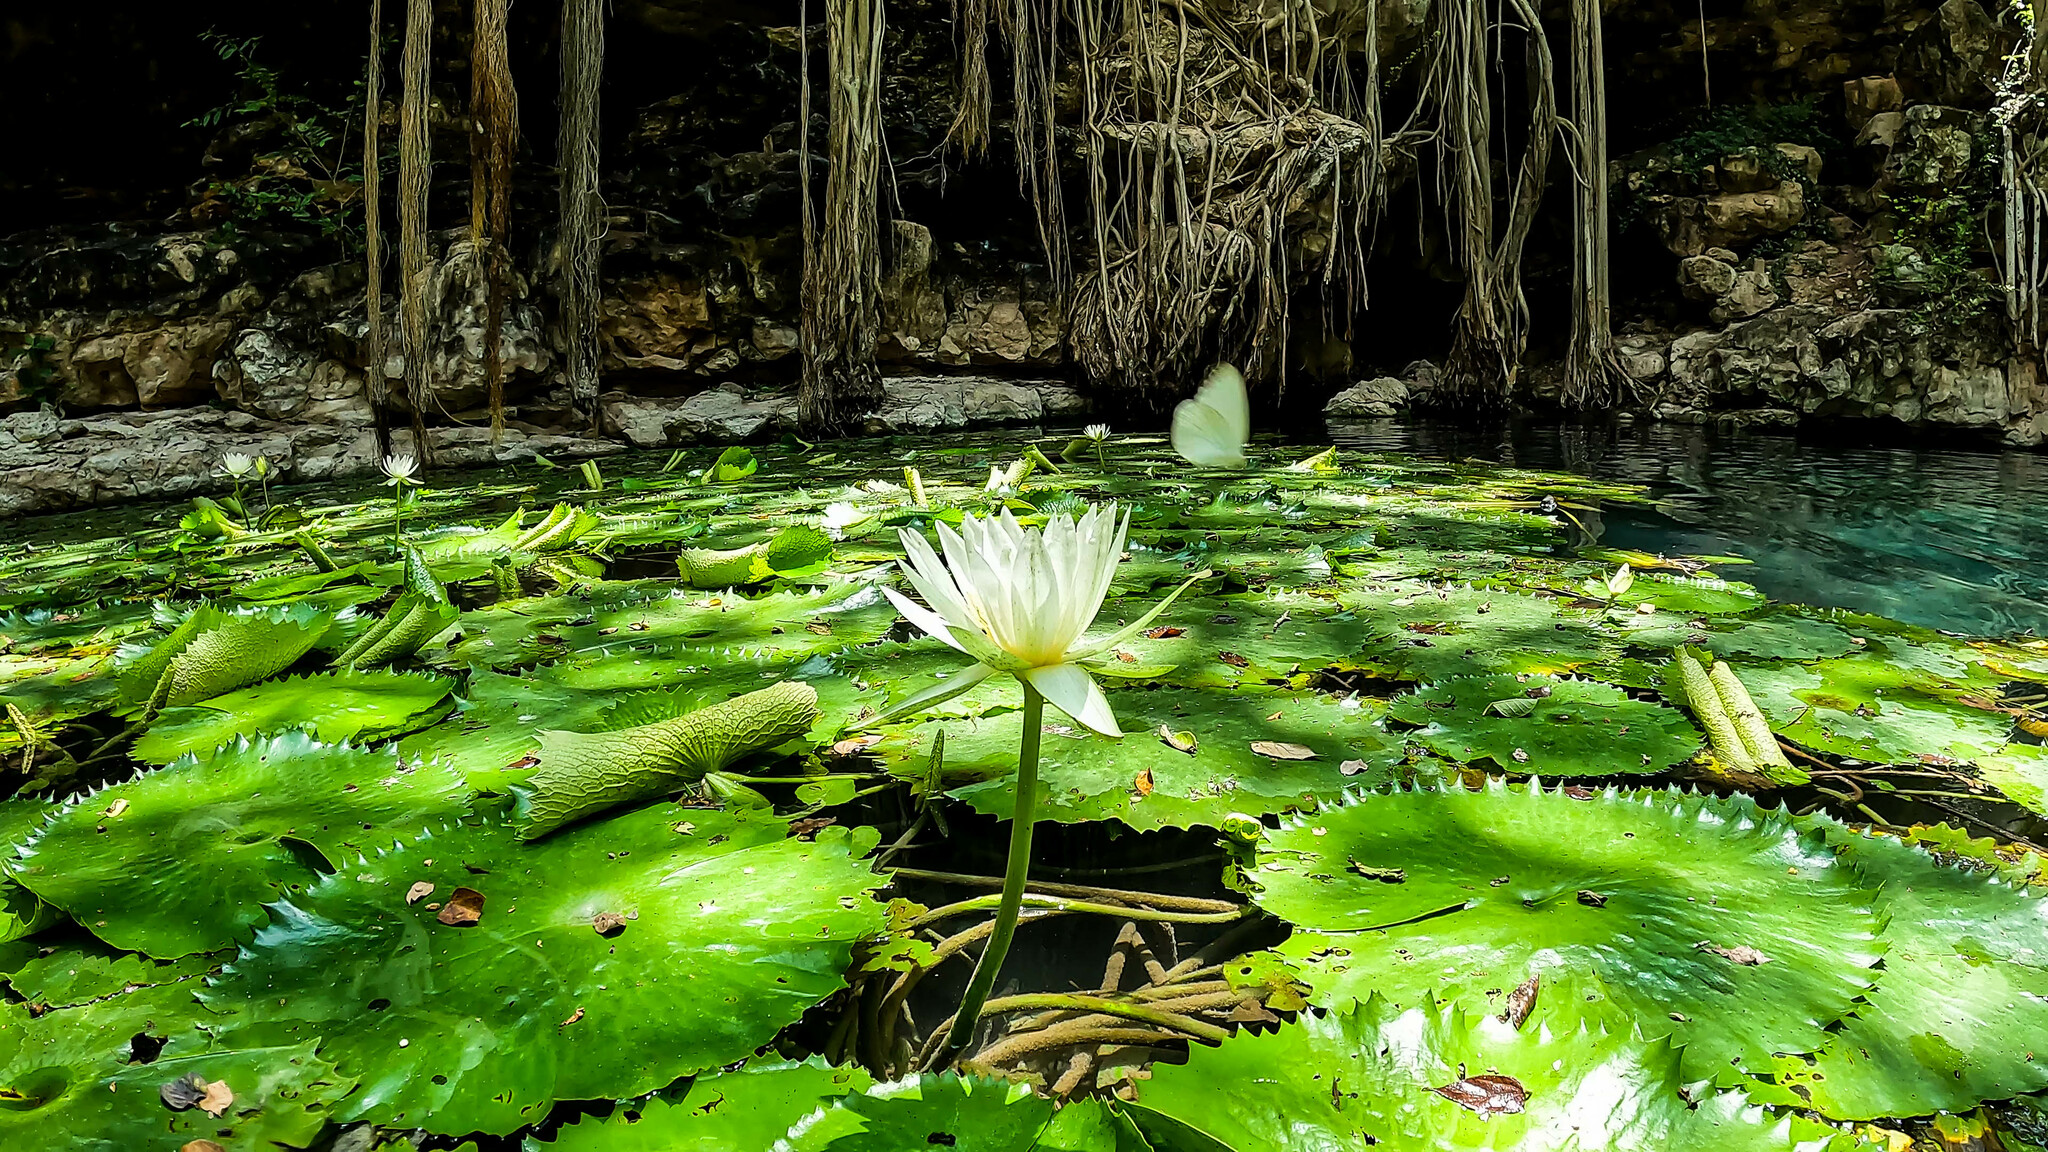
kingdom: Plantae
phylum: Tracheophyta
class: Magnoliopsida
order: Nymphaeales
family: Nymphaeaceae
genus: Nymphaea
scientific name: Nymphaea ampla
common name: Dotleaf waterlily
